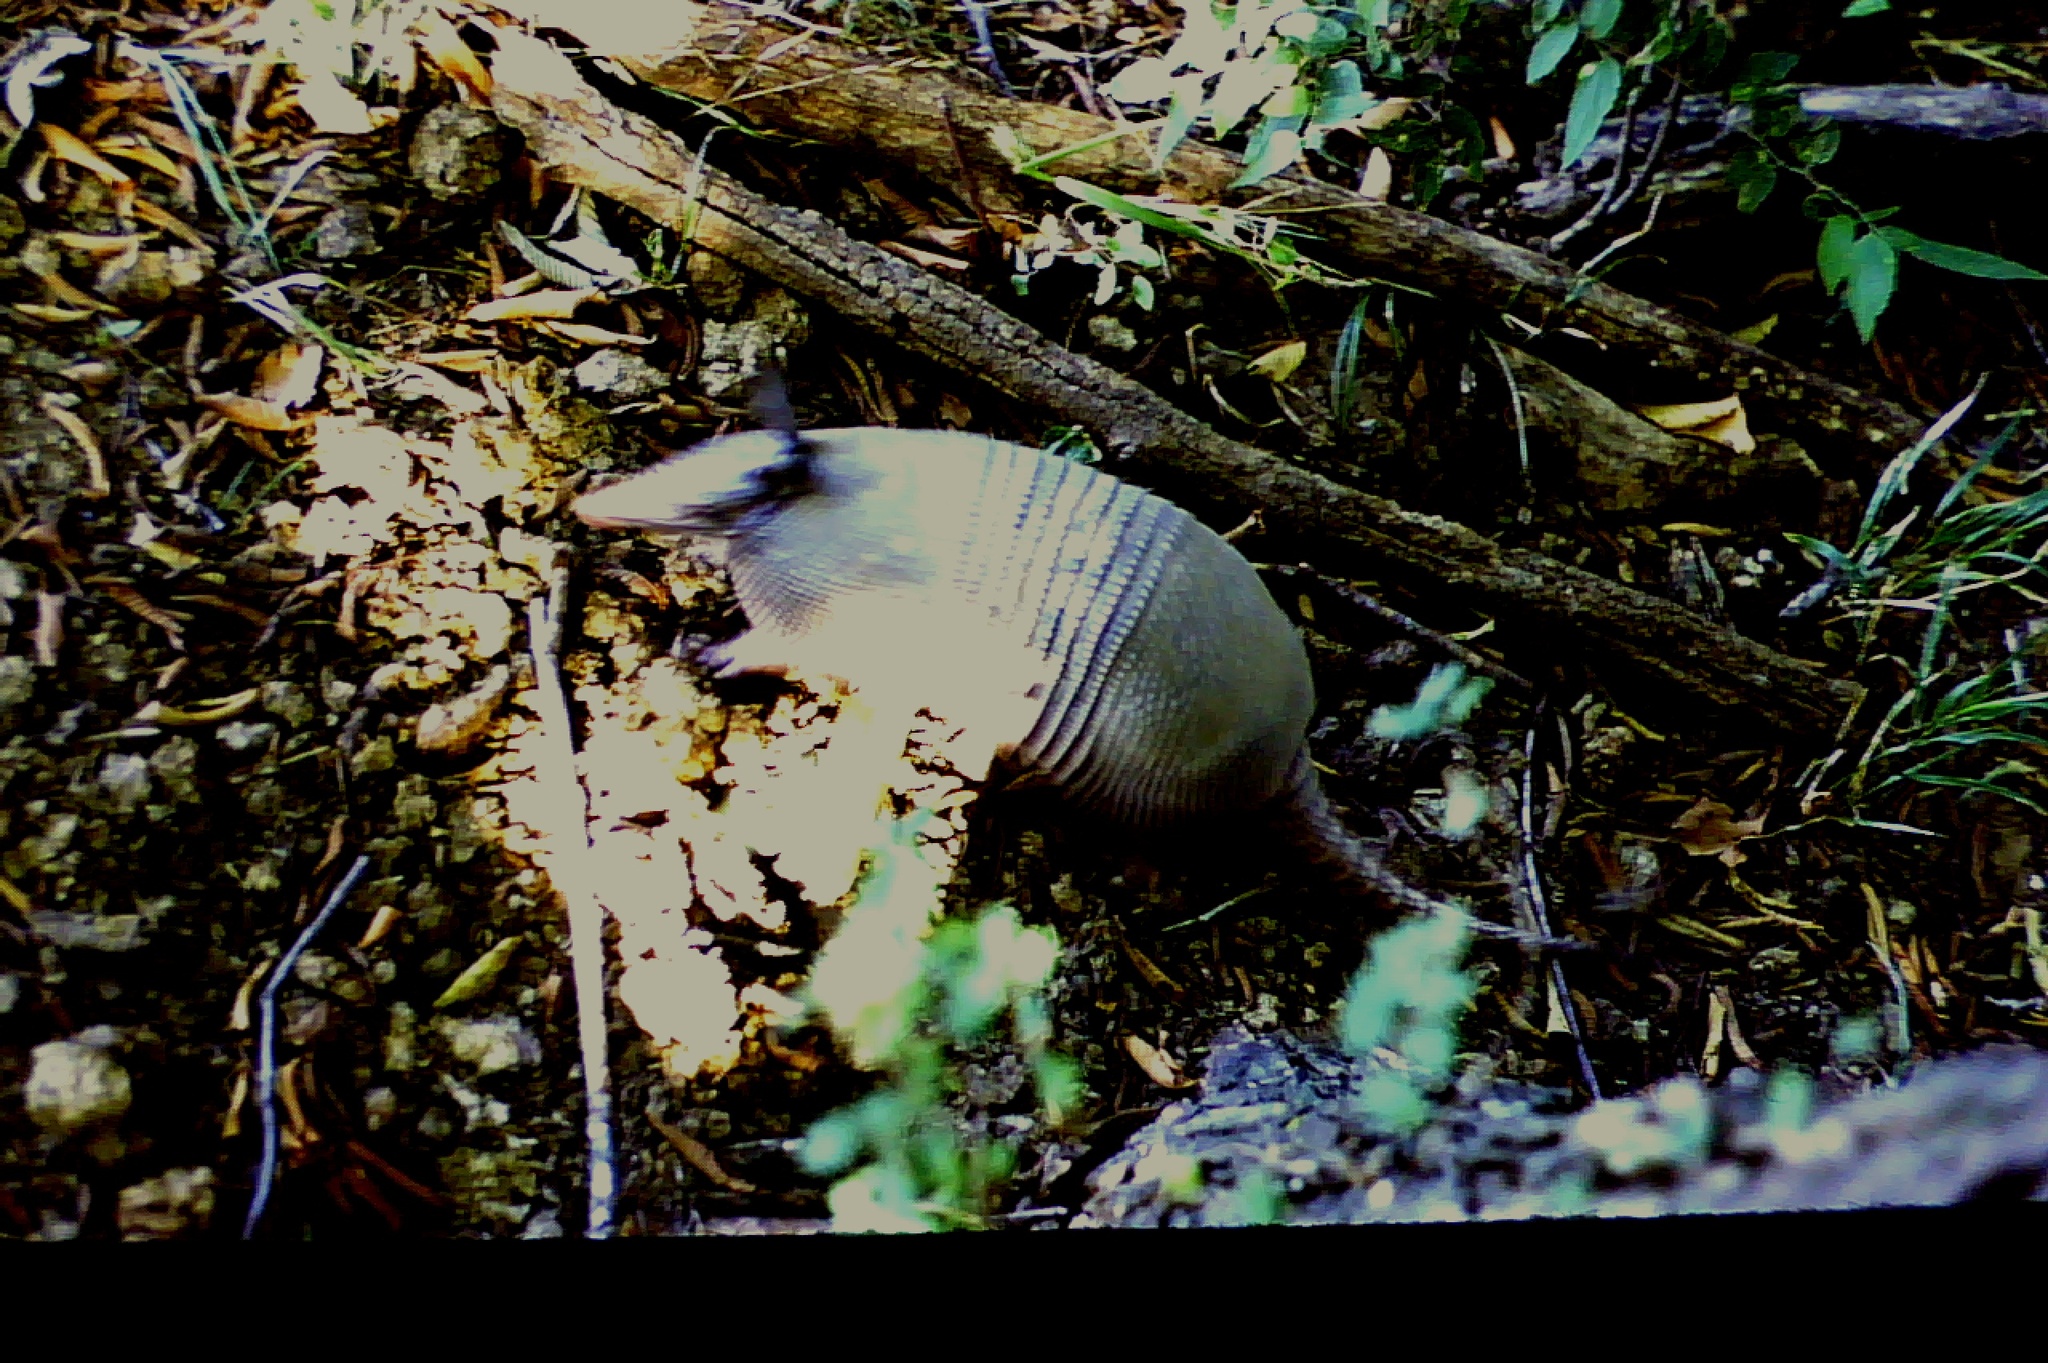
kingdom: Animalia
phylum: Chordata
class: Mammalia
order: Cingulata
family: Dasypodidae
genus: Dasypus
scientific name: Dasypus novemcinctus
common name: Nine-banded armadillo
